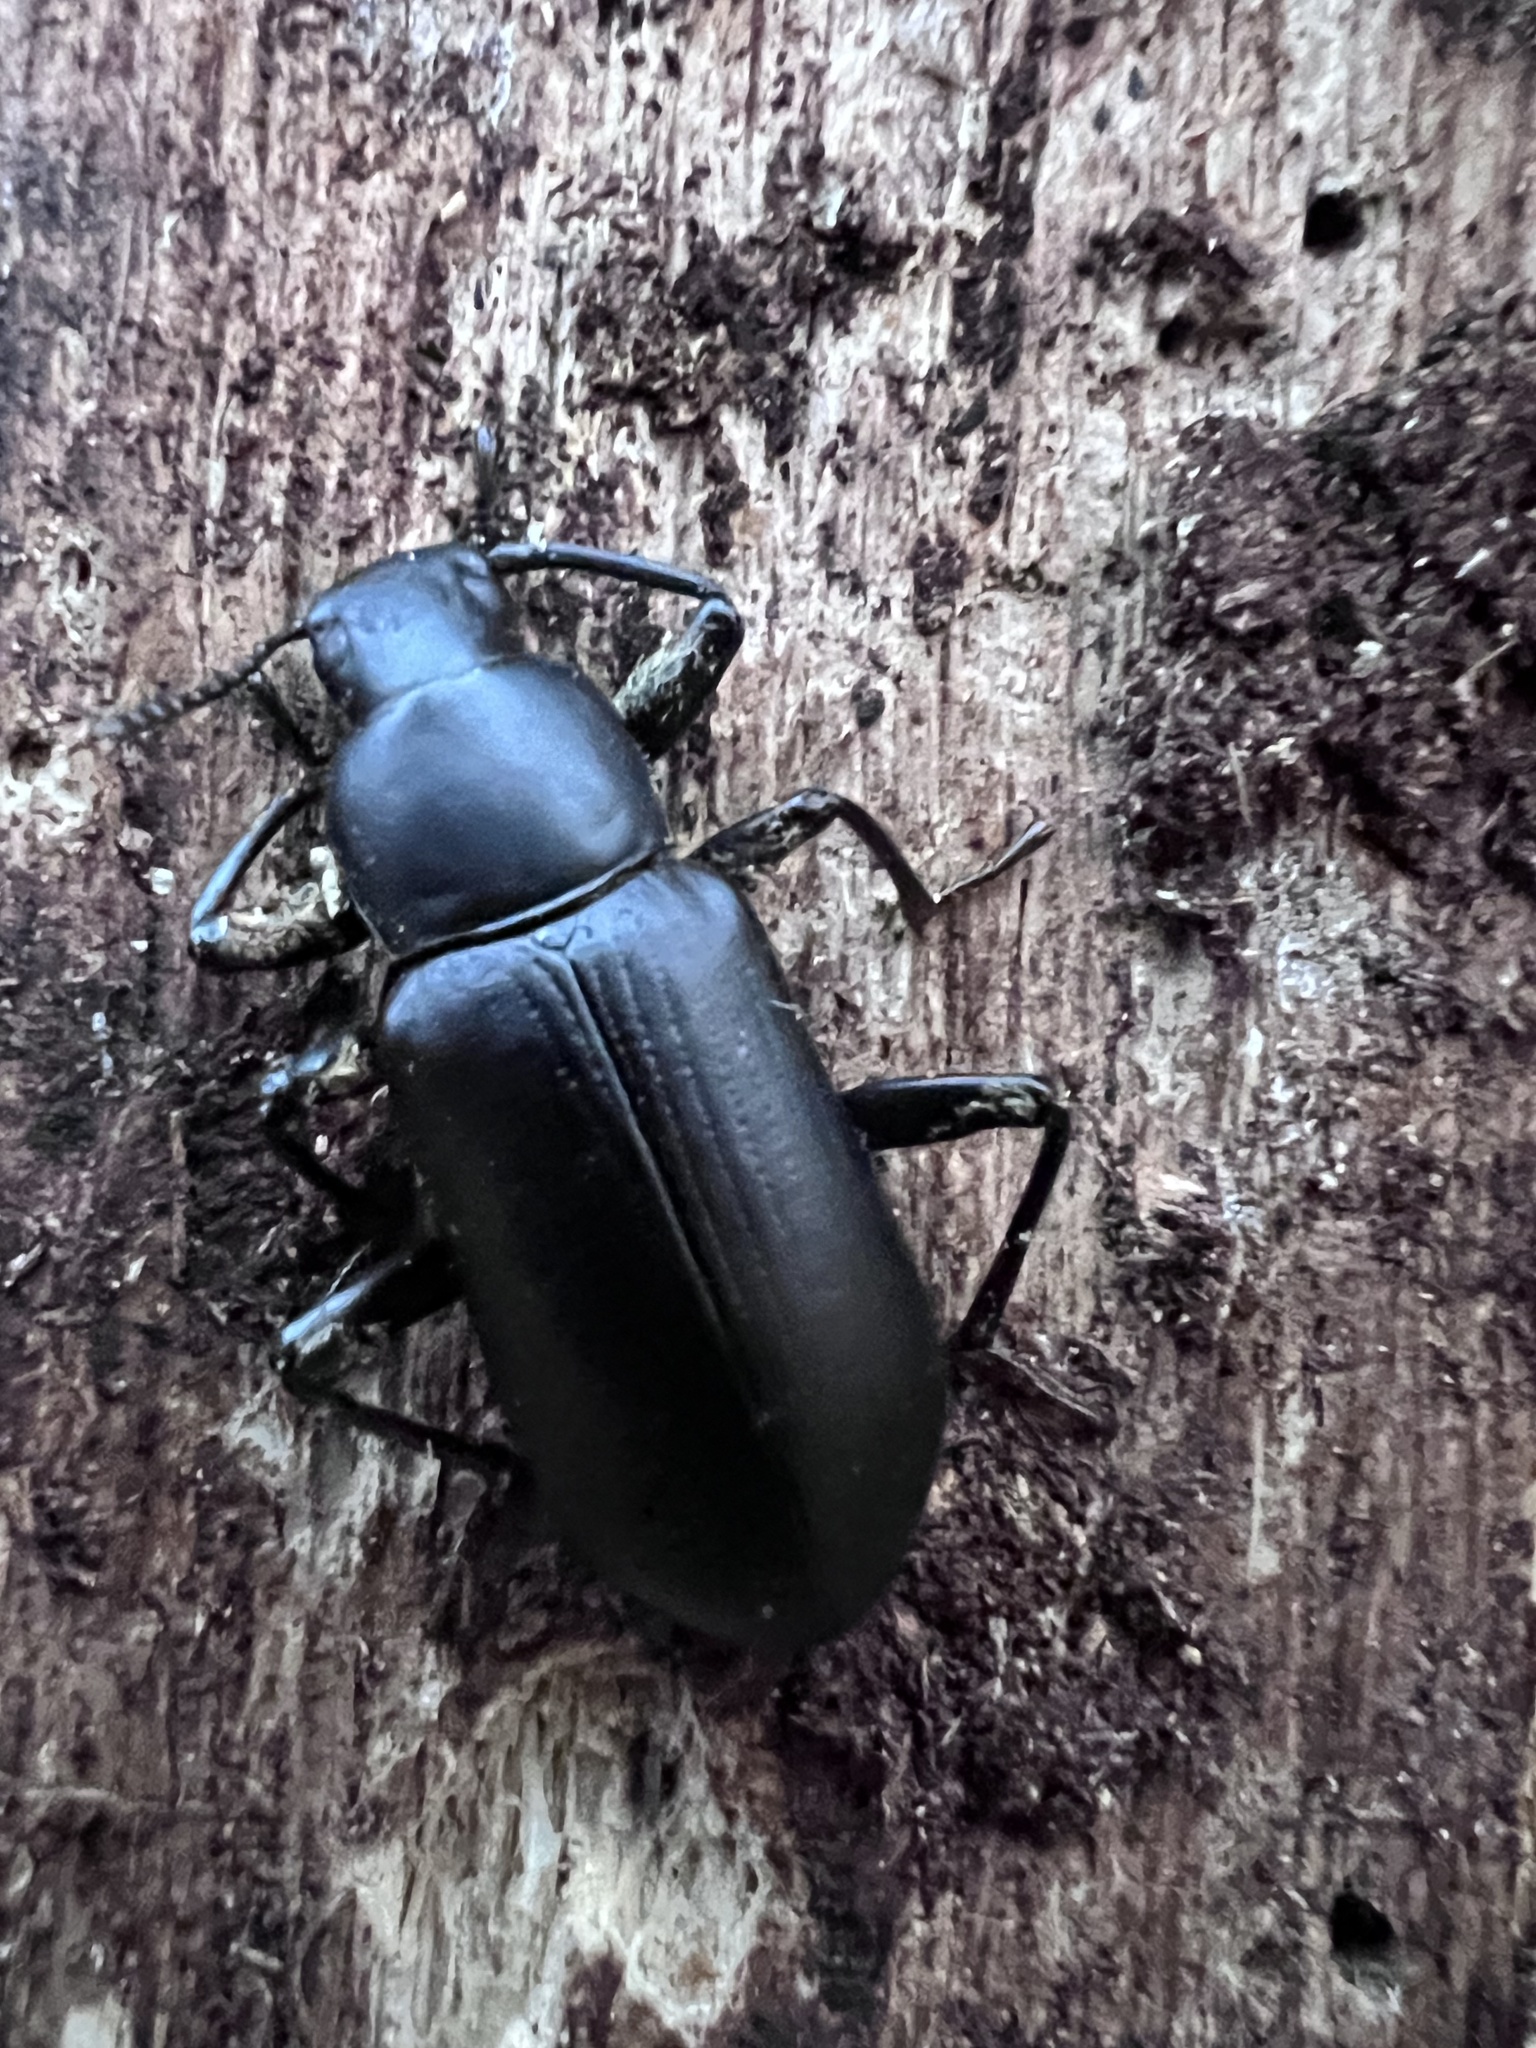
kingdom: Animalia
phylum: Arthropoda
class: Insecta
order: Coleoptera
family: Tenebrionidae
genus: Alobates
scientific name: Alobates pensylvanicus
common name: False mealworm beetle
